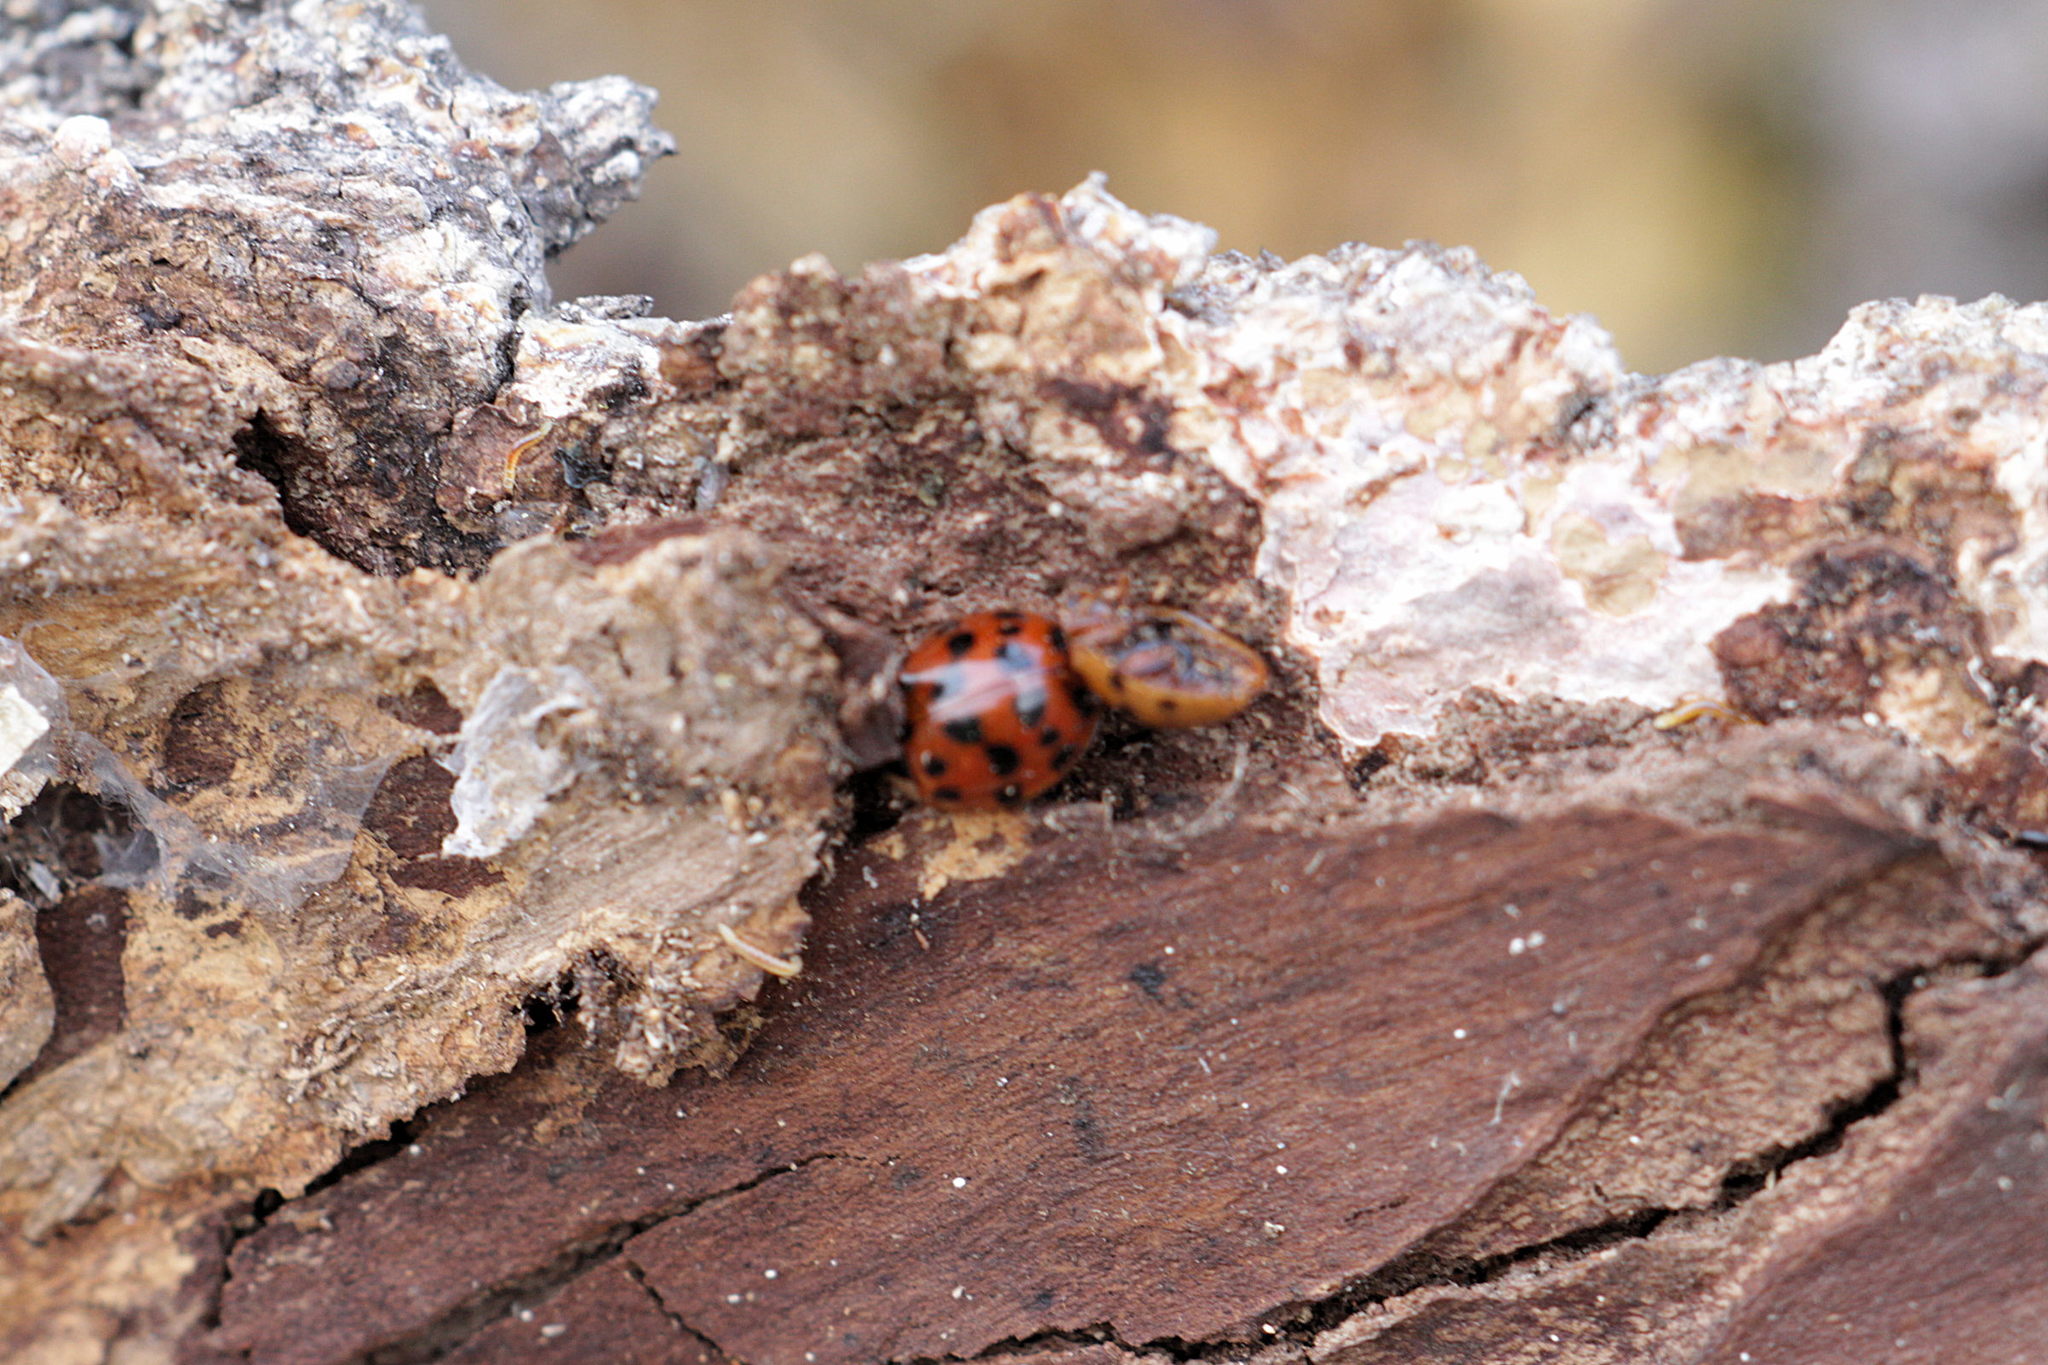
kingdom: Animalia
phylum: Arthropoda
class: Insecta
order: Coleoptera
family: Coccinellidae
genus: Harmonia
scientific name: Harmonia axyridis
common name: Harlequin ladybird
